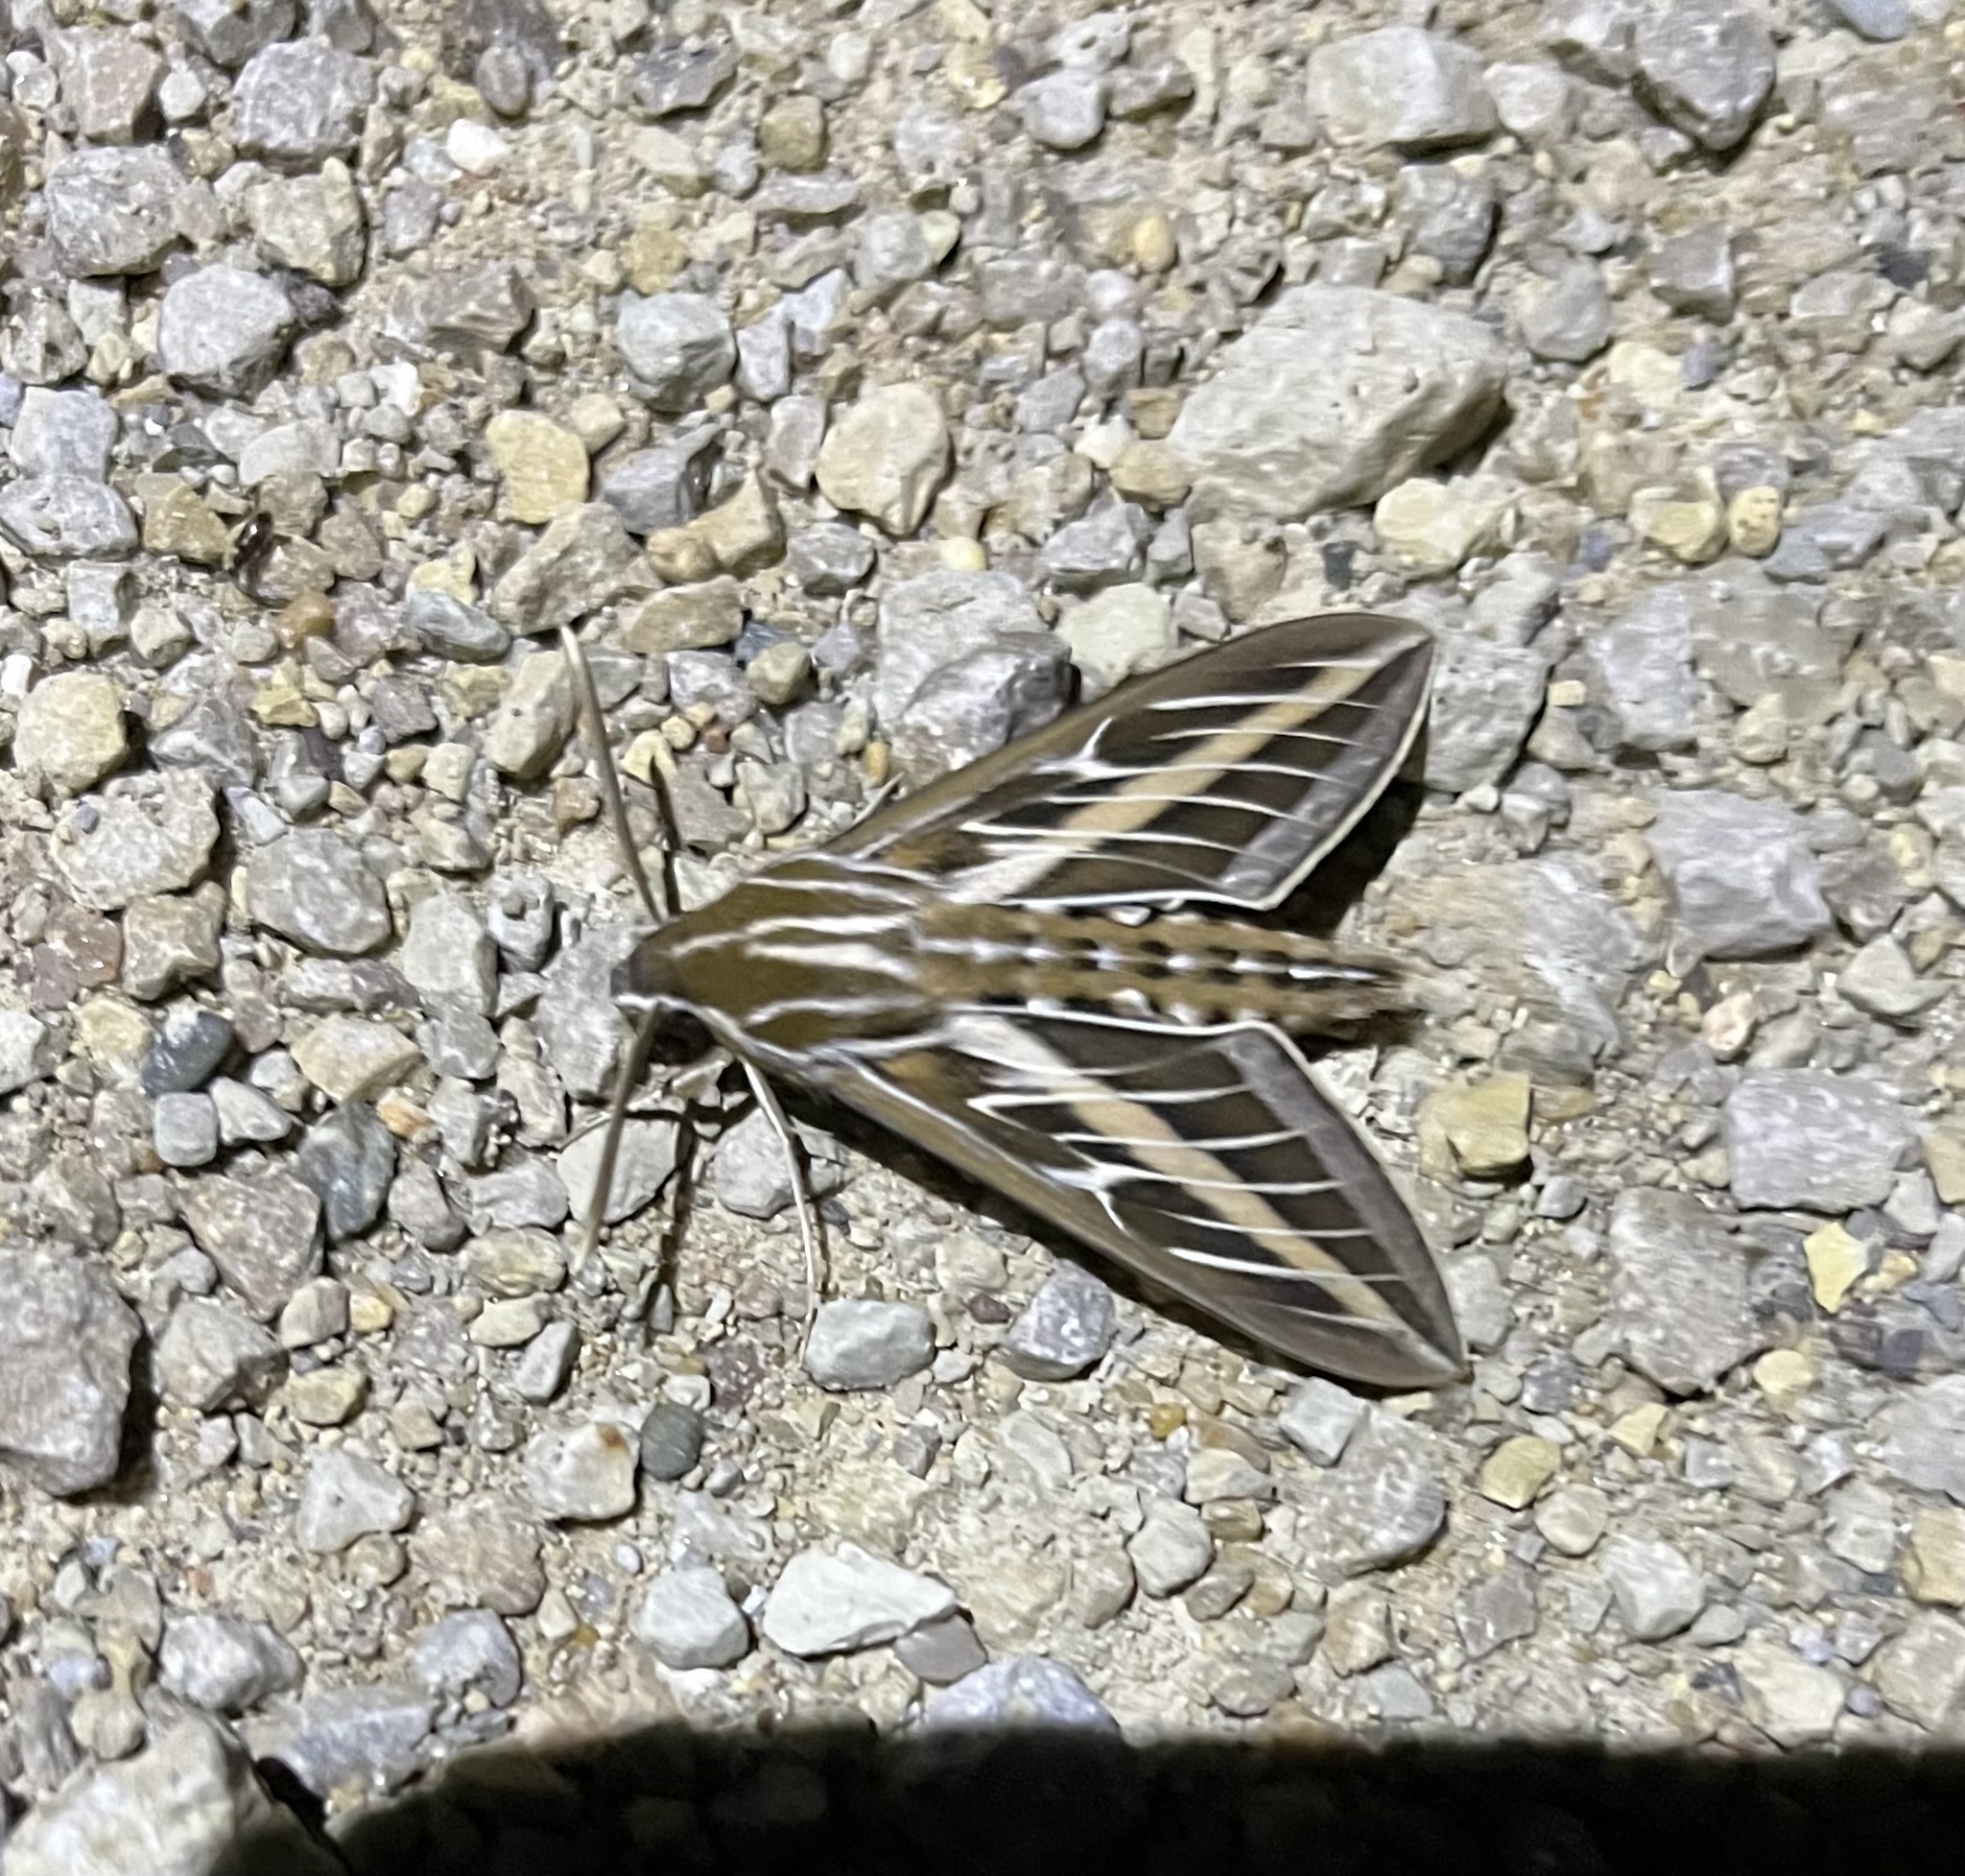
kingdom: Animalia
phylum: Arthropoda
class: Insecta
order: Lepidoptera
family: Sphingidae
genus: Hyles
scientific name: Hyles lineata
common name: White-lined sphinx
